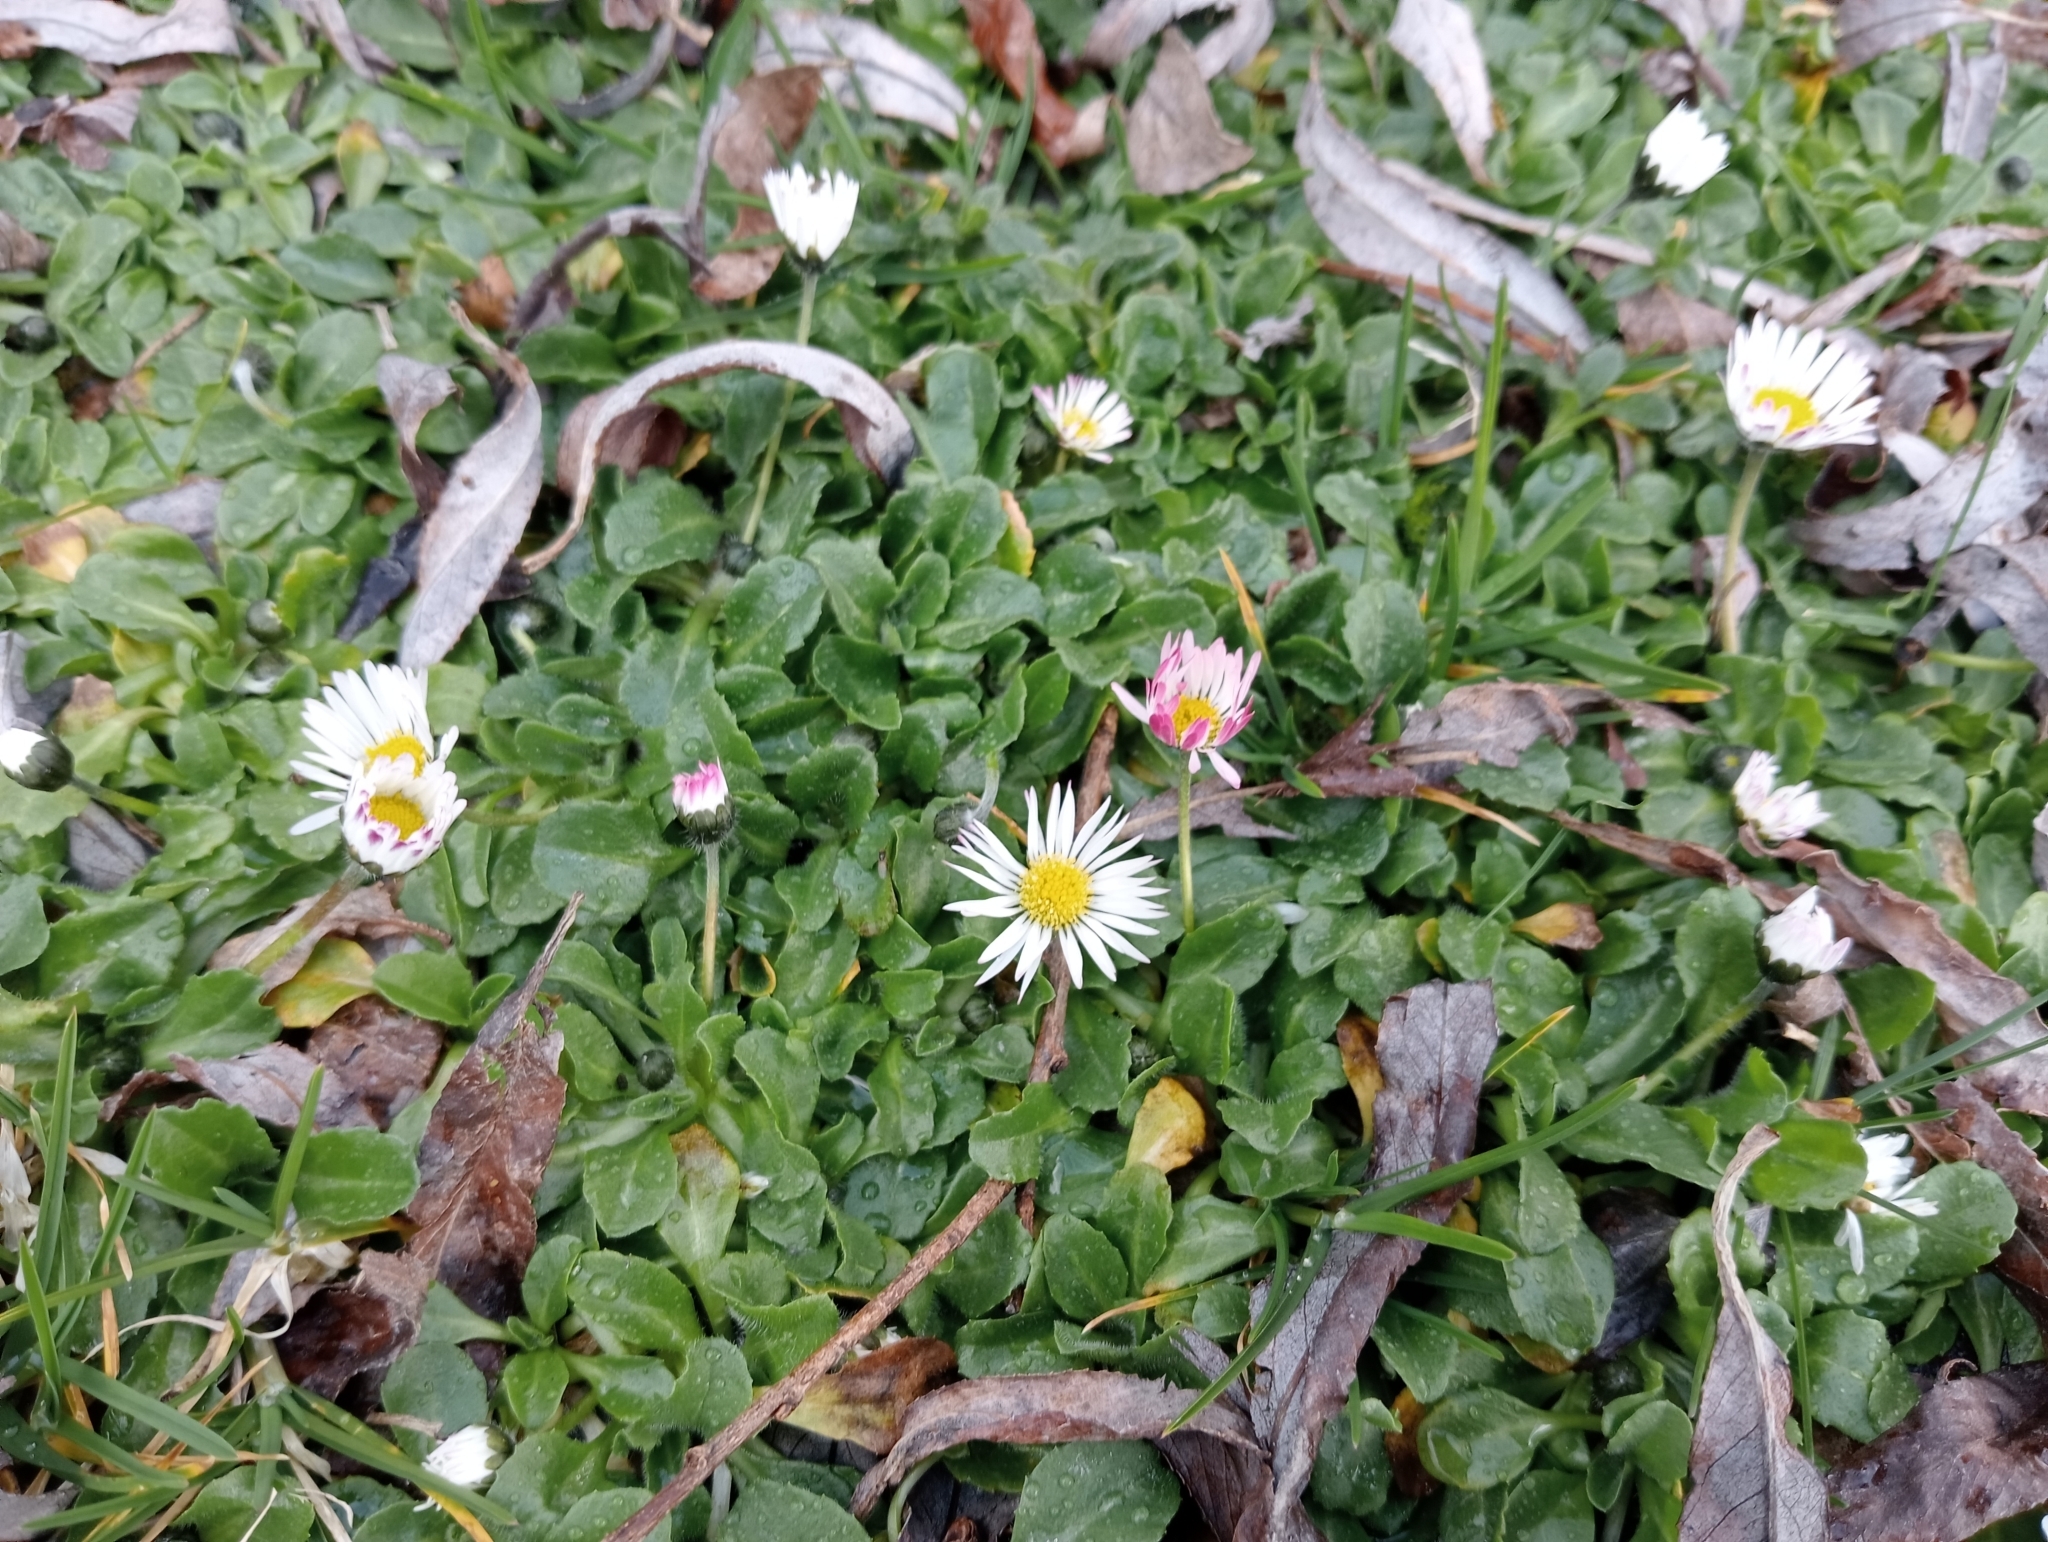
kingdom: Plantae
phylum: Tracheophyta
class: Magnoliopsida
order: Asterales
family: Asteraceae
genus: Bellis
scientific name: Bellis perennis
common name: Lawndaisy
